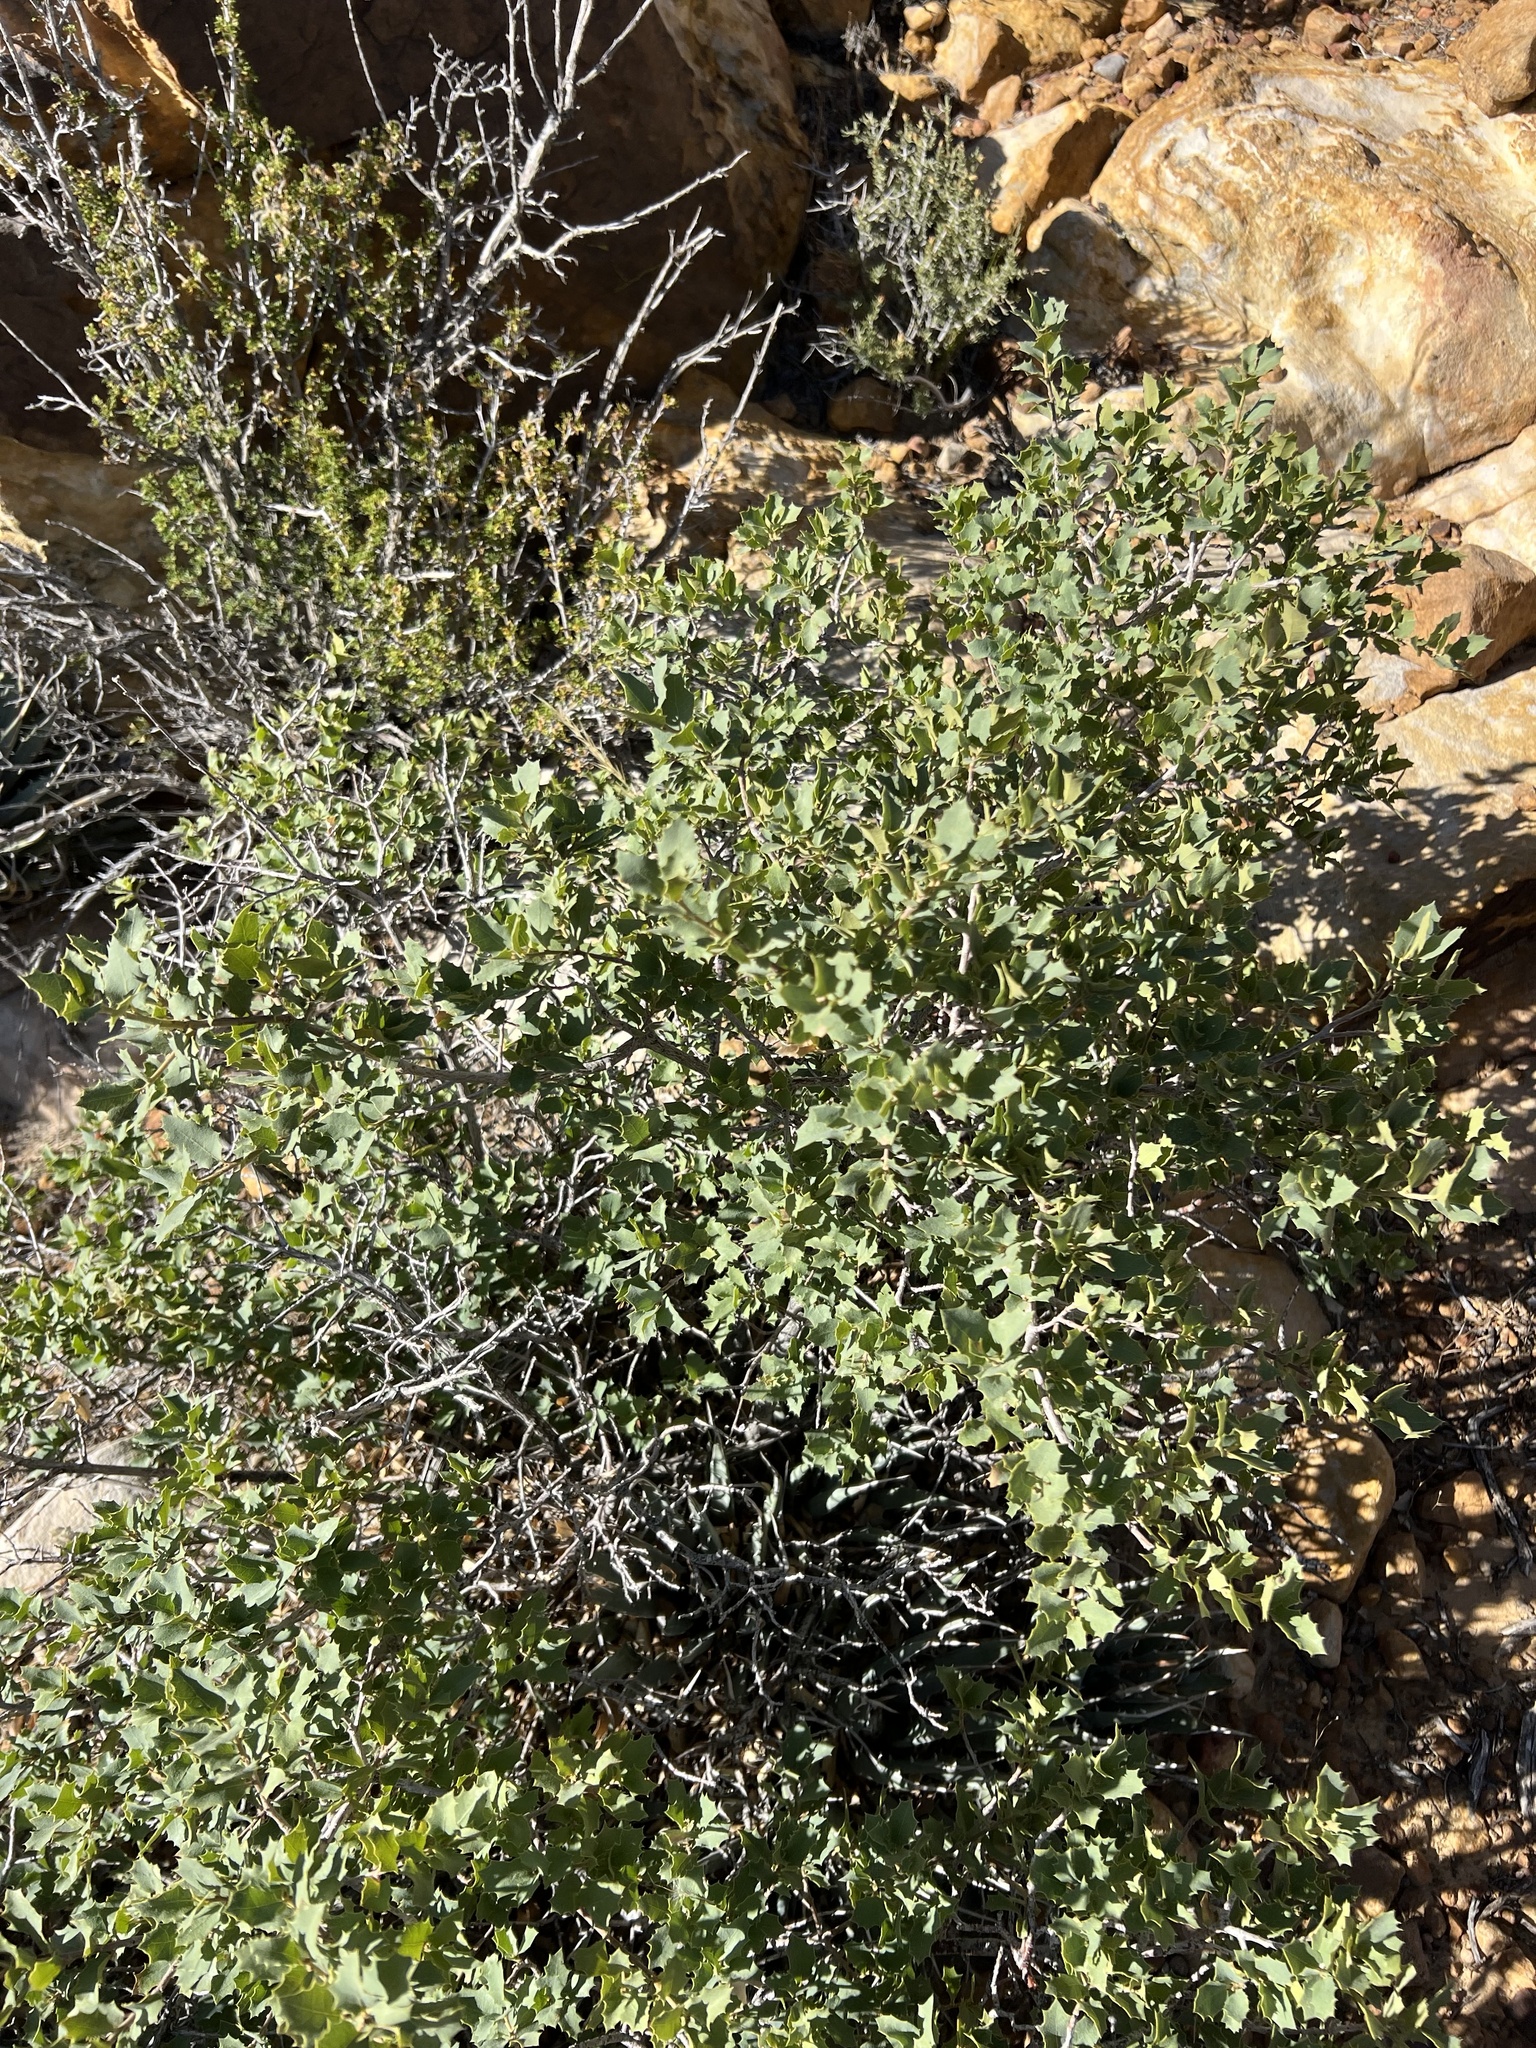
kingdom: Plantae
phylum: Tracheophyta
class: Magnoliopsida
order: Fagales
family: Fagaceae
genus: Quercus
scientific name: Quercus turbinella
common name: Sonoran scrub oak
